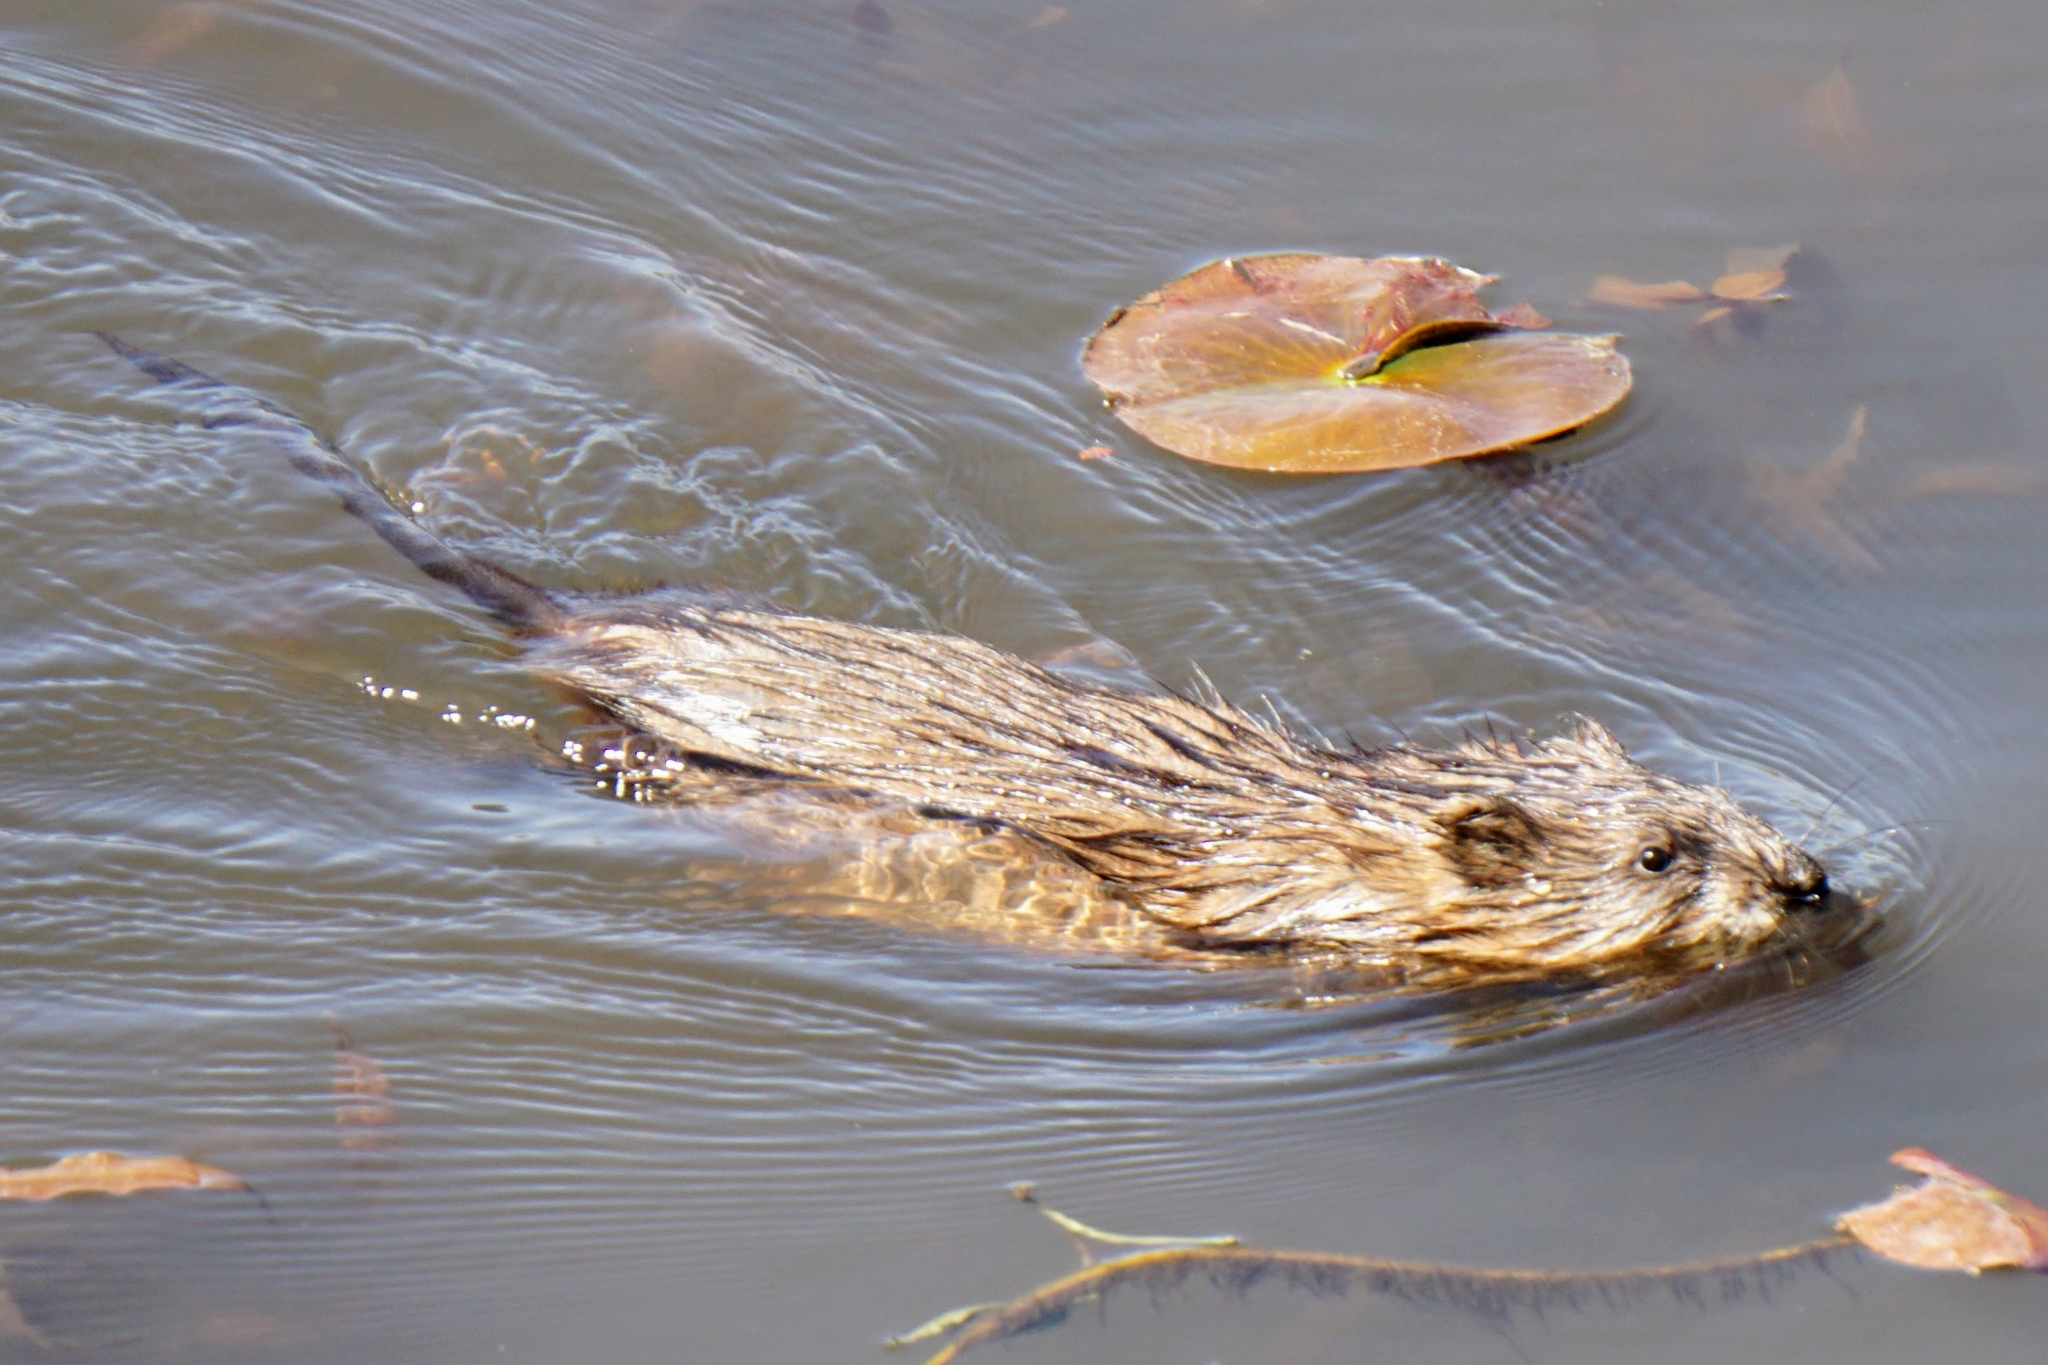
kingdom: Animalia
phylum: Chordata
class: Mammalia
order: Rodentia
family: Cricetidae
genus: Ondatra
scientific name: Ondatra zibethicus
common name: Muskrat
